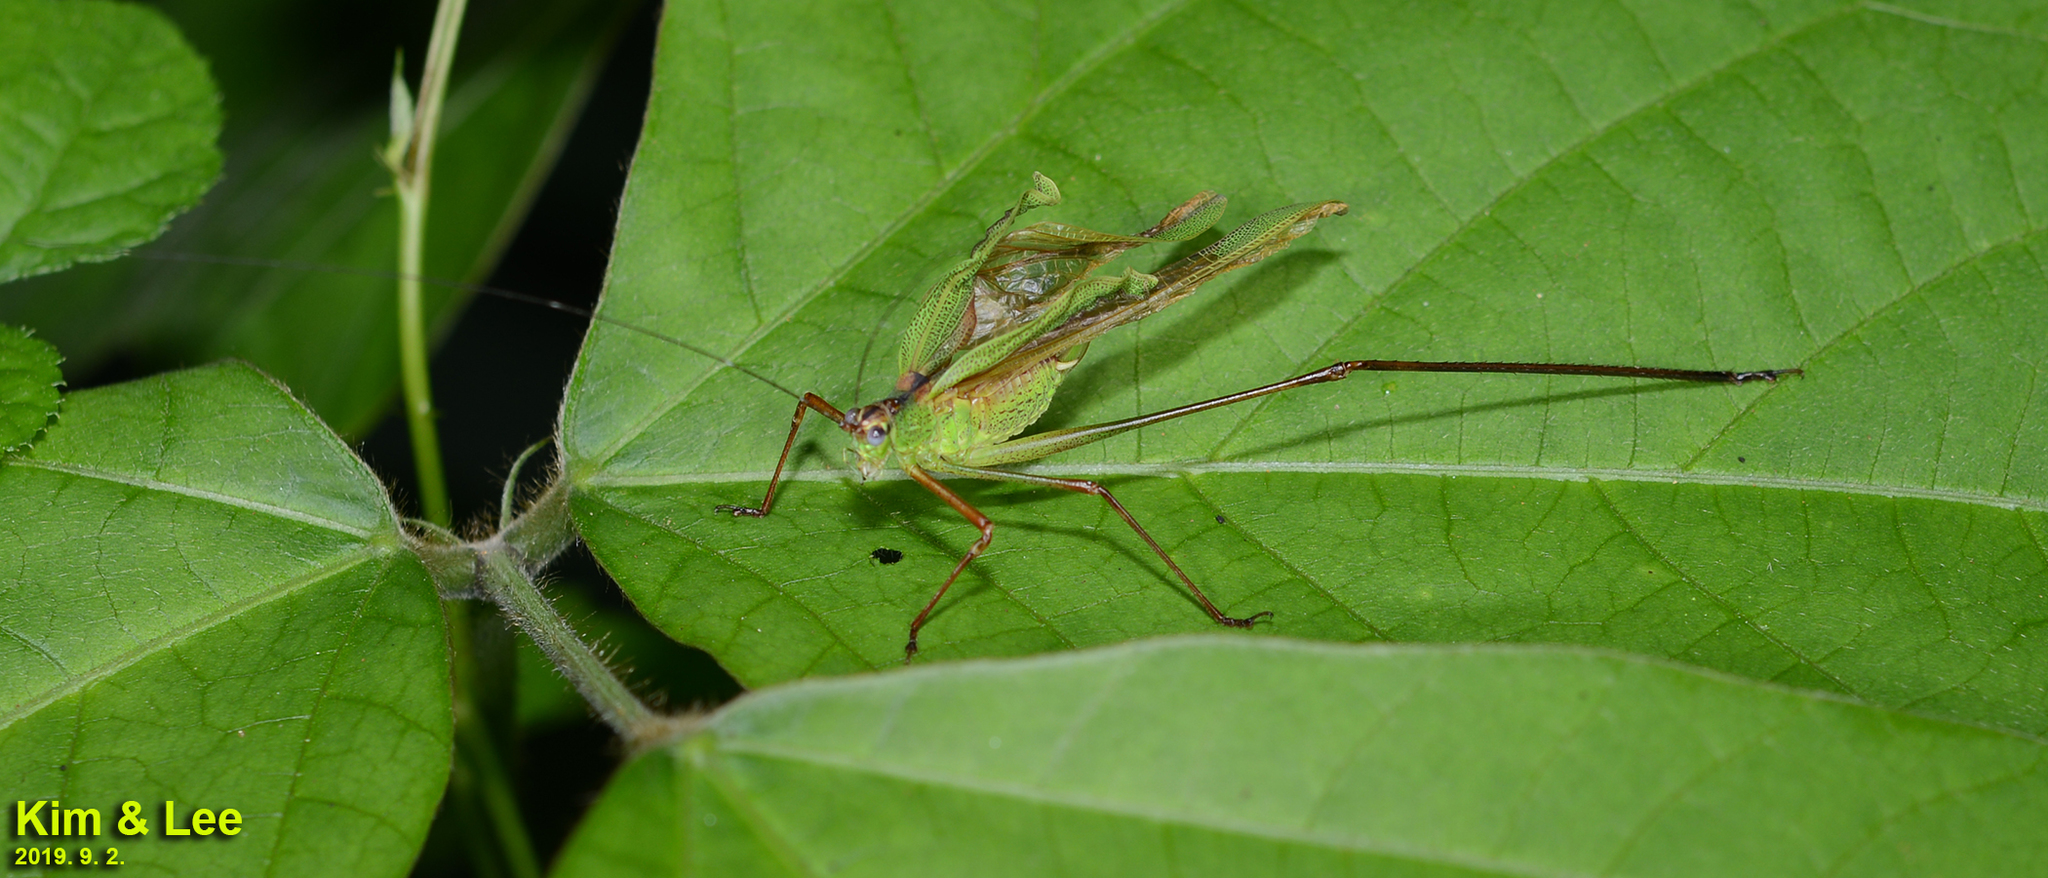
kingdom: Animalia
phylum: Arthropoda
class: Insecta
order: Orthoptera
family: Tettigoniidae
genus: Phaneroptera
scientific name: Phaneroptera nigroantennata
